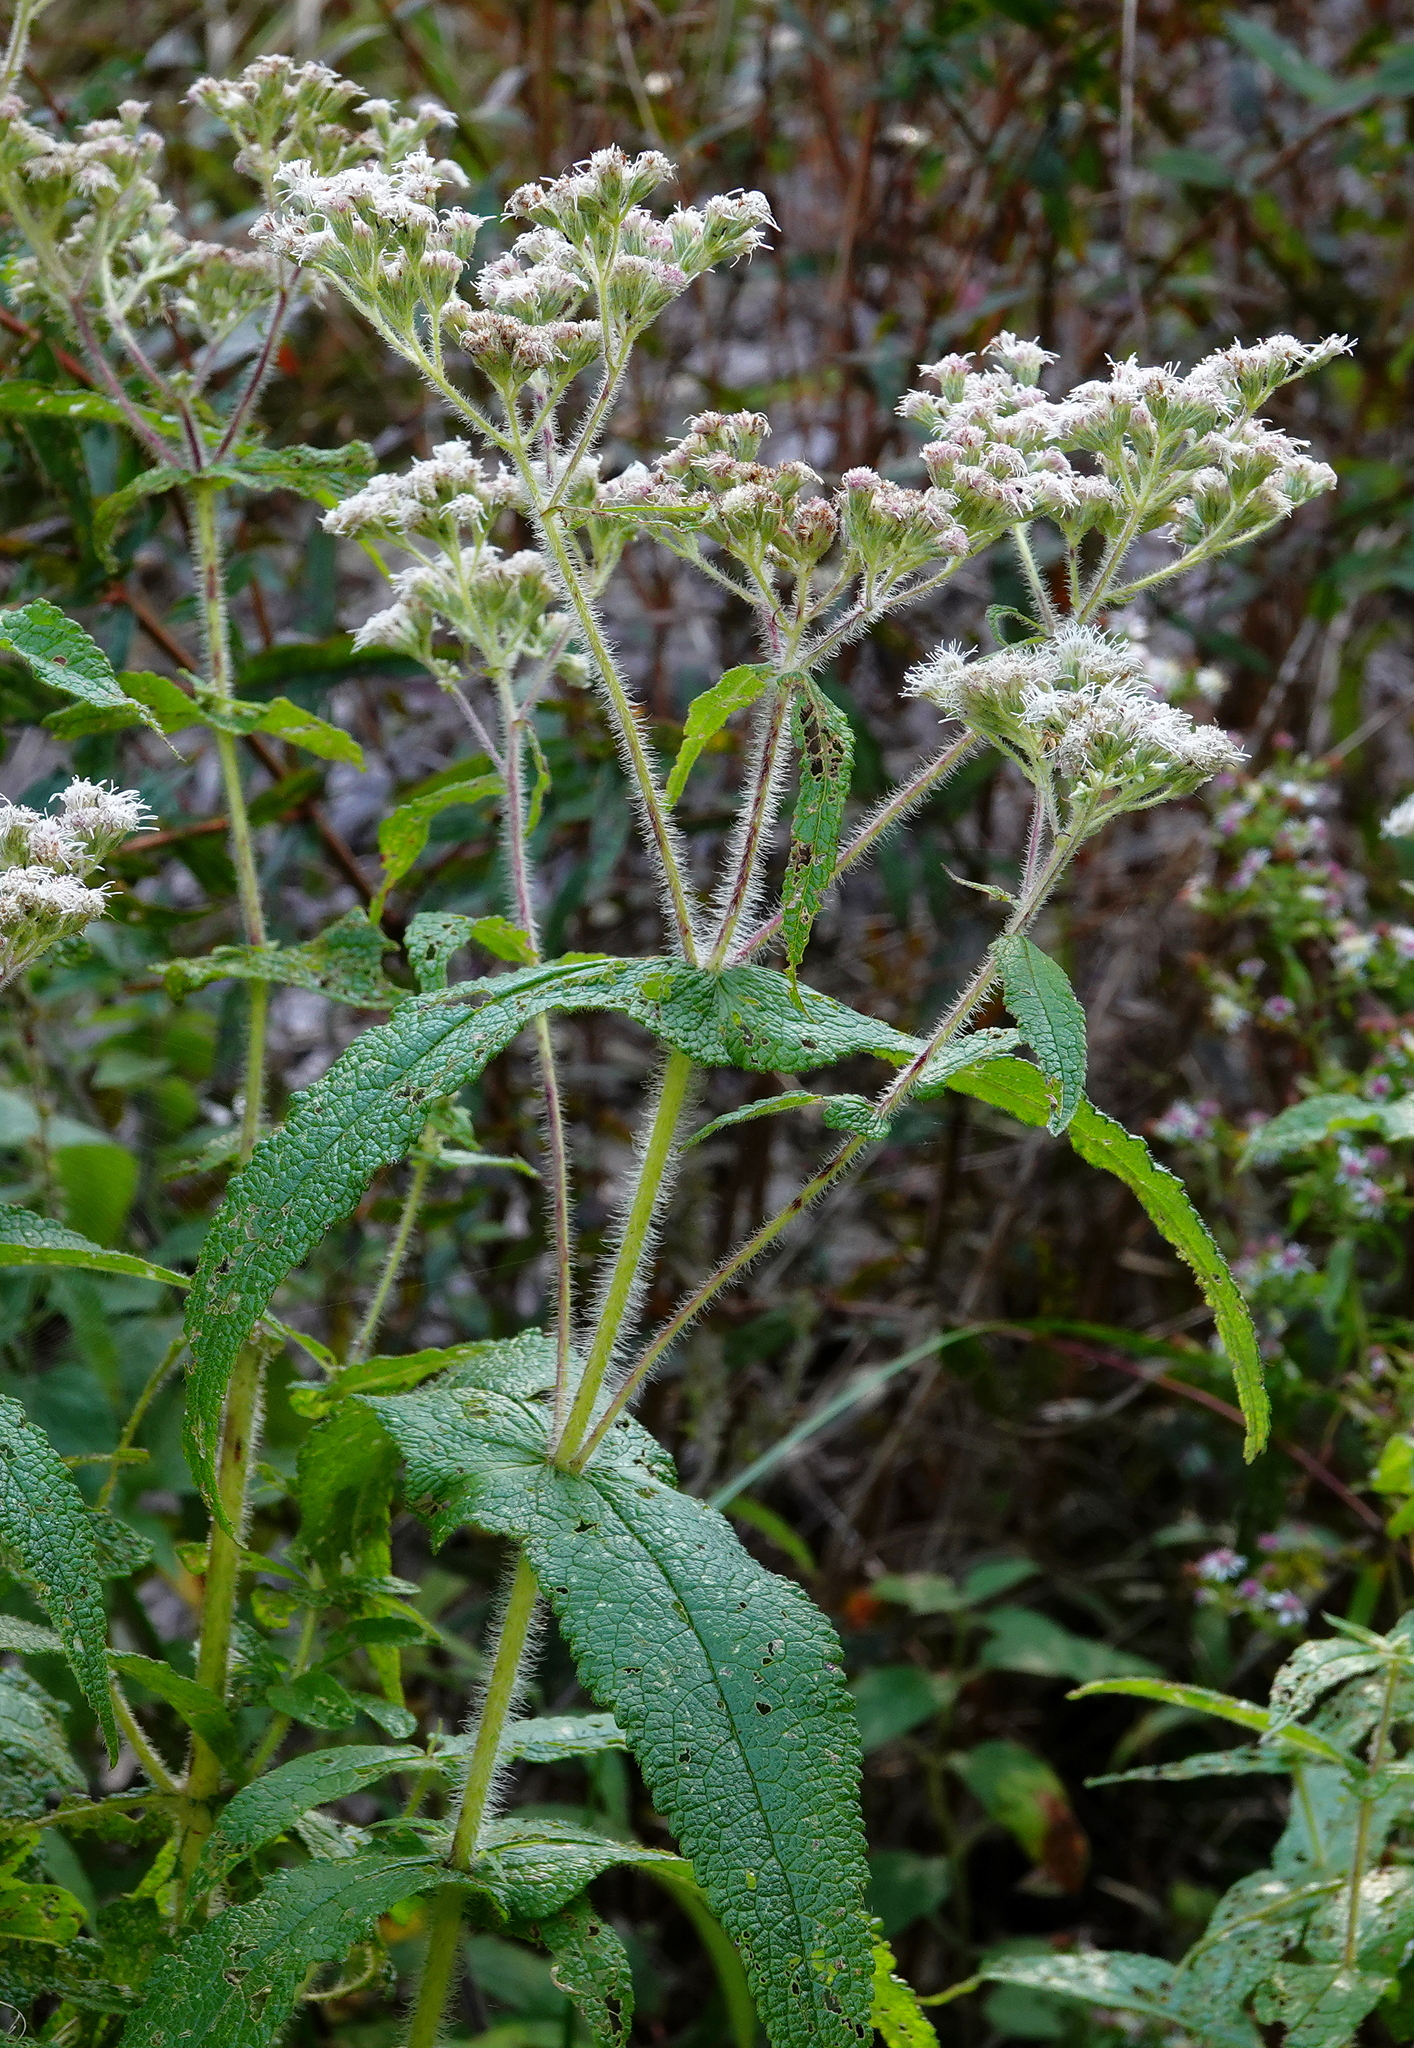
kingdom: Plantae
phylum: Tracheophyta
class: Magnoliopsida
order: Asterales
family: Asteraceae
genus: Eupatorium
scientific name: Eupatorium perfoliatum
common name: Boneset
